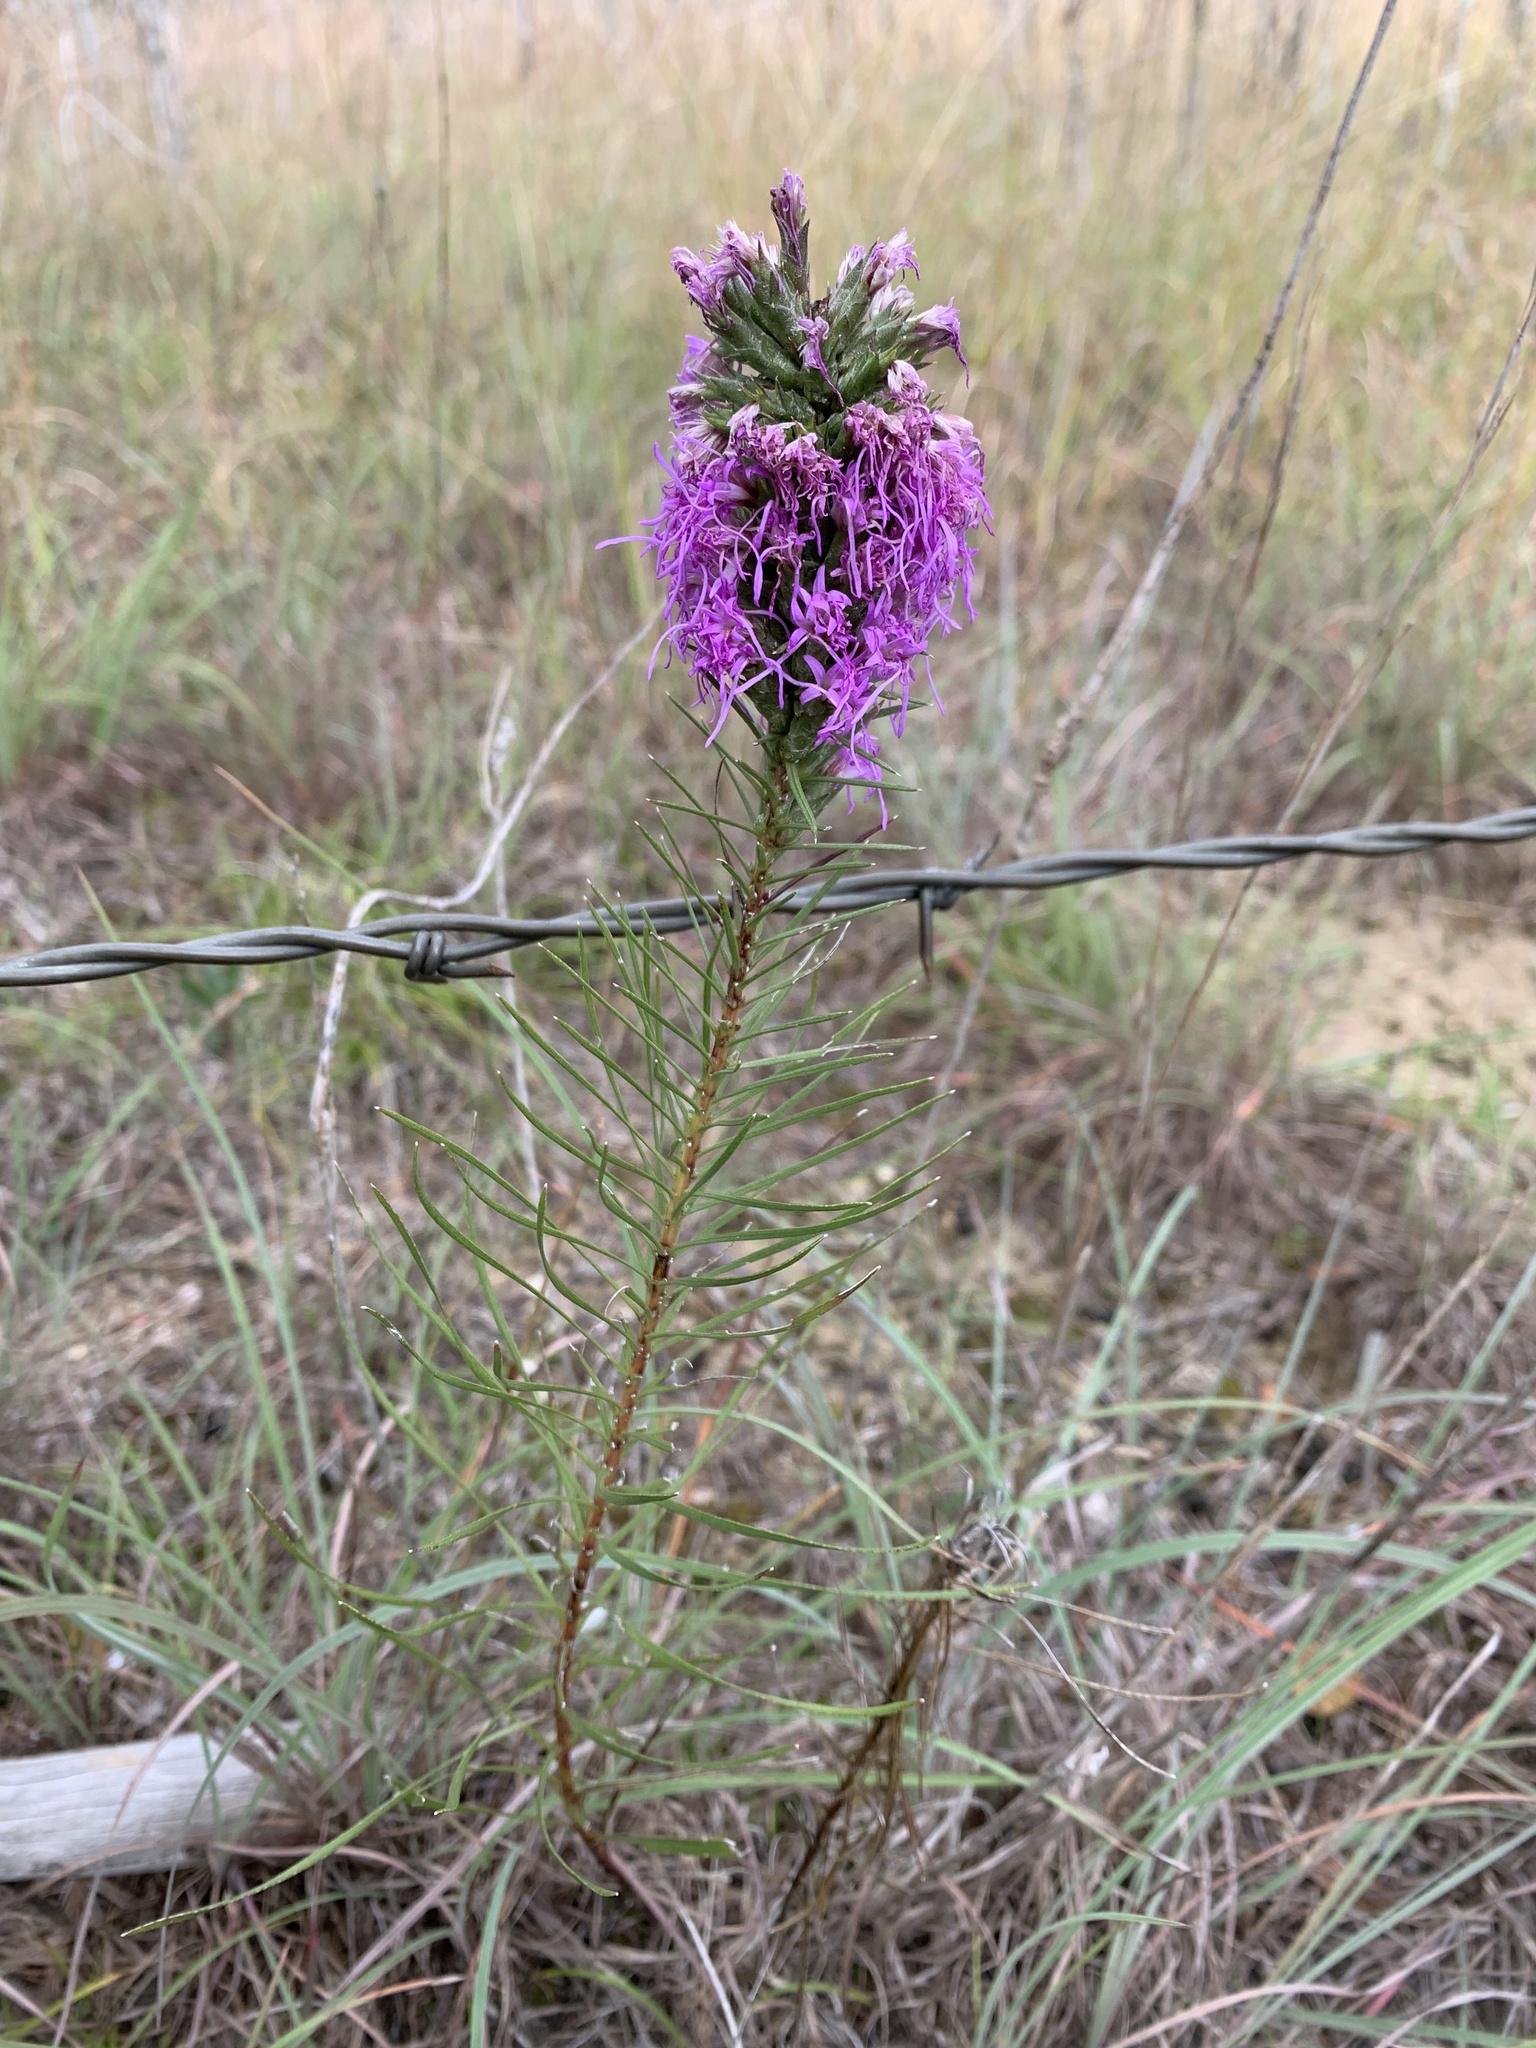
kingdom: Plantae
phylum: Tracheophyta
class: Magnoliopsida
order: Asterales
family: Asteraceae
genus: Liatris
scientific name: Liatris punctata
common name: Dotted gayfeather
